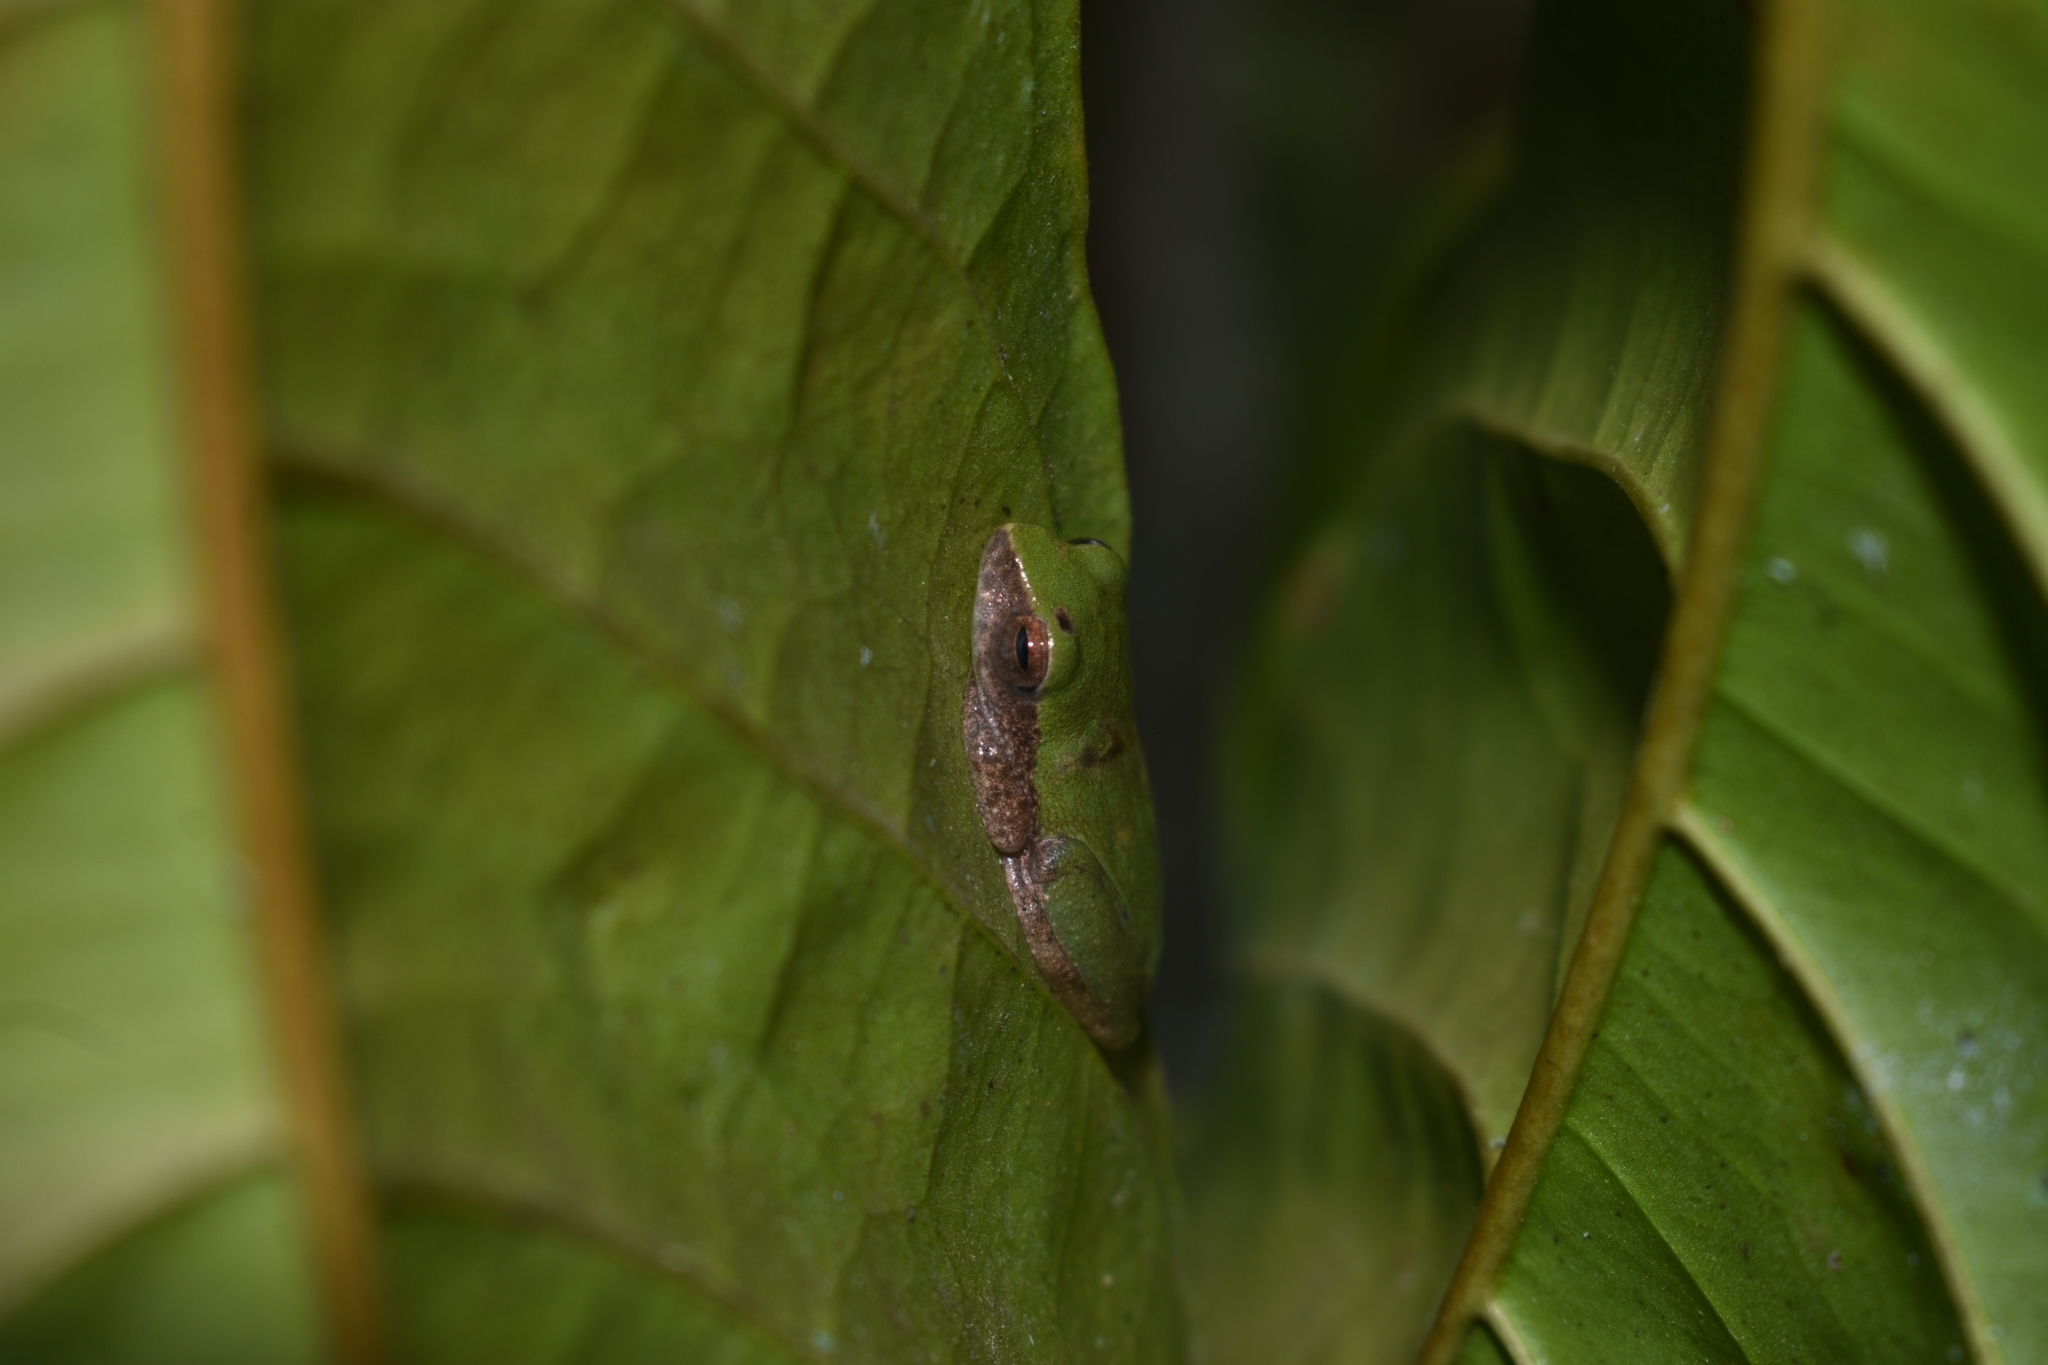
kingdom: Animalia
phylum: Chordata
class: Amphibia
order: Anura
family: Rhacophoridae
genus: Raorchestes
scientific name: Raorchestes akroparallagi
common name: Variable bush frog
